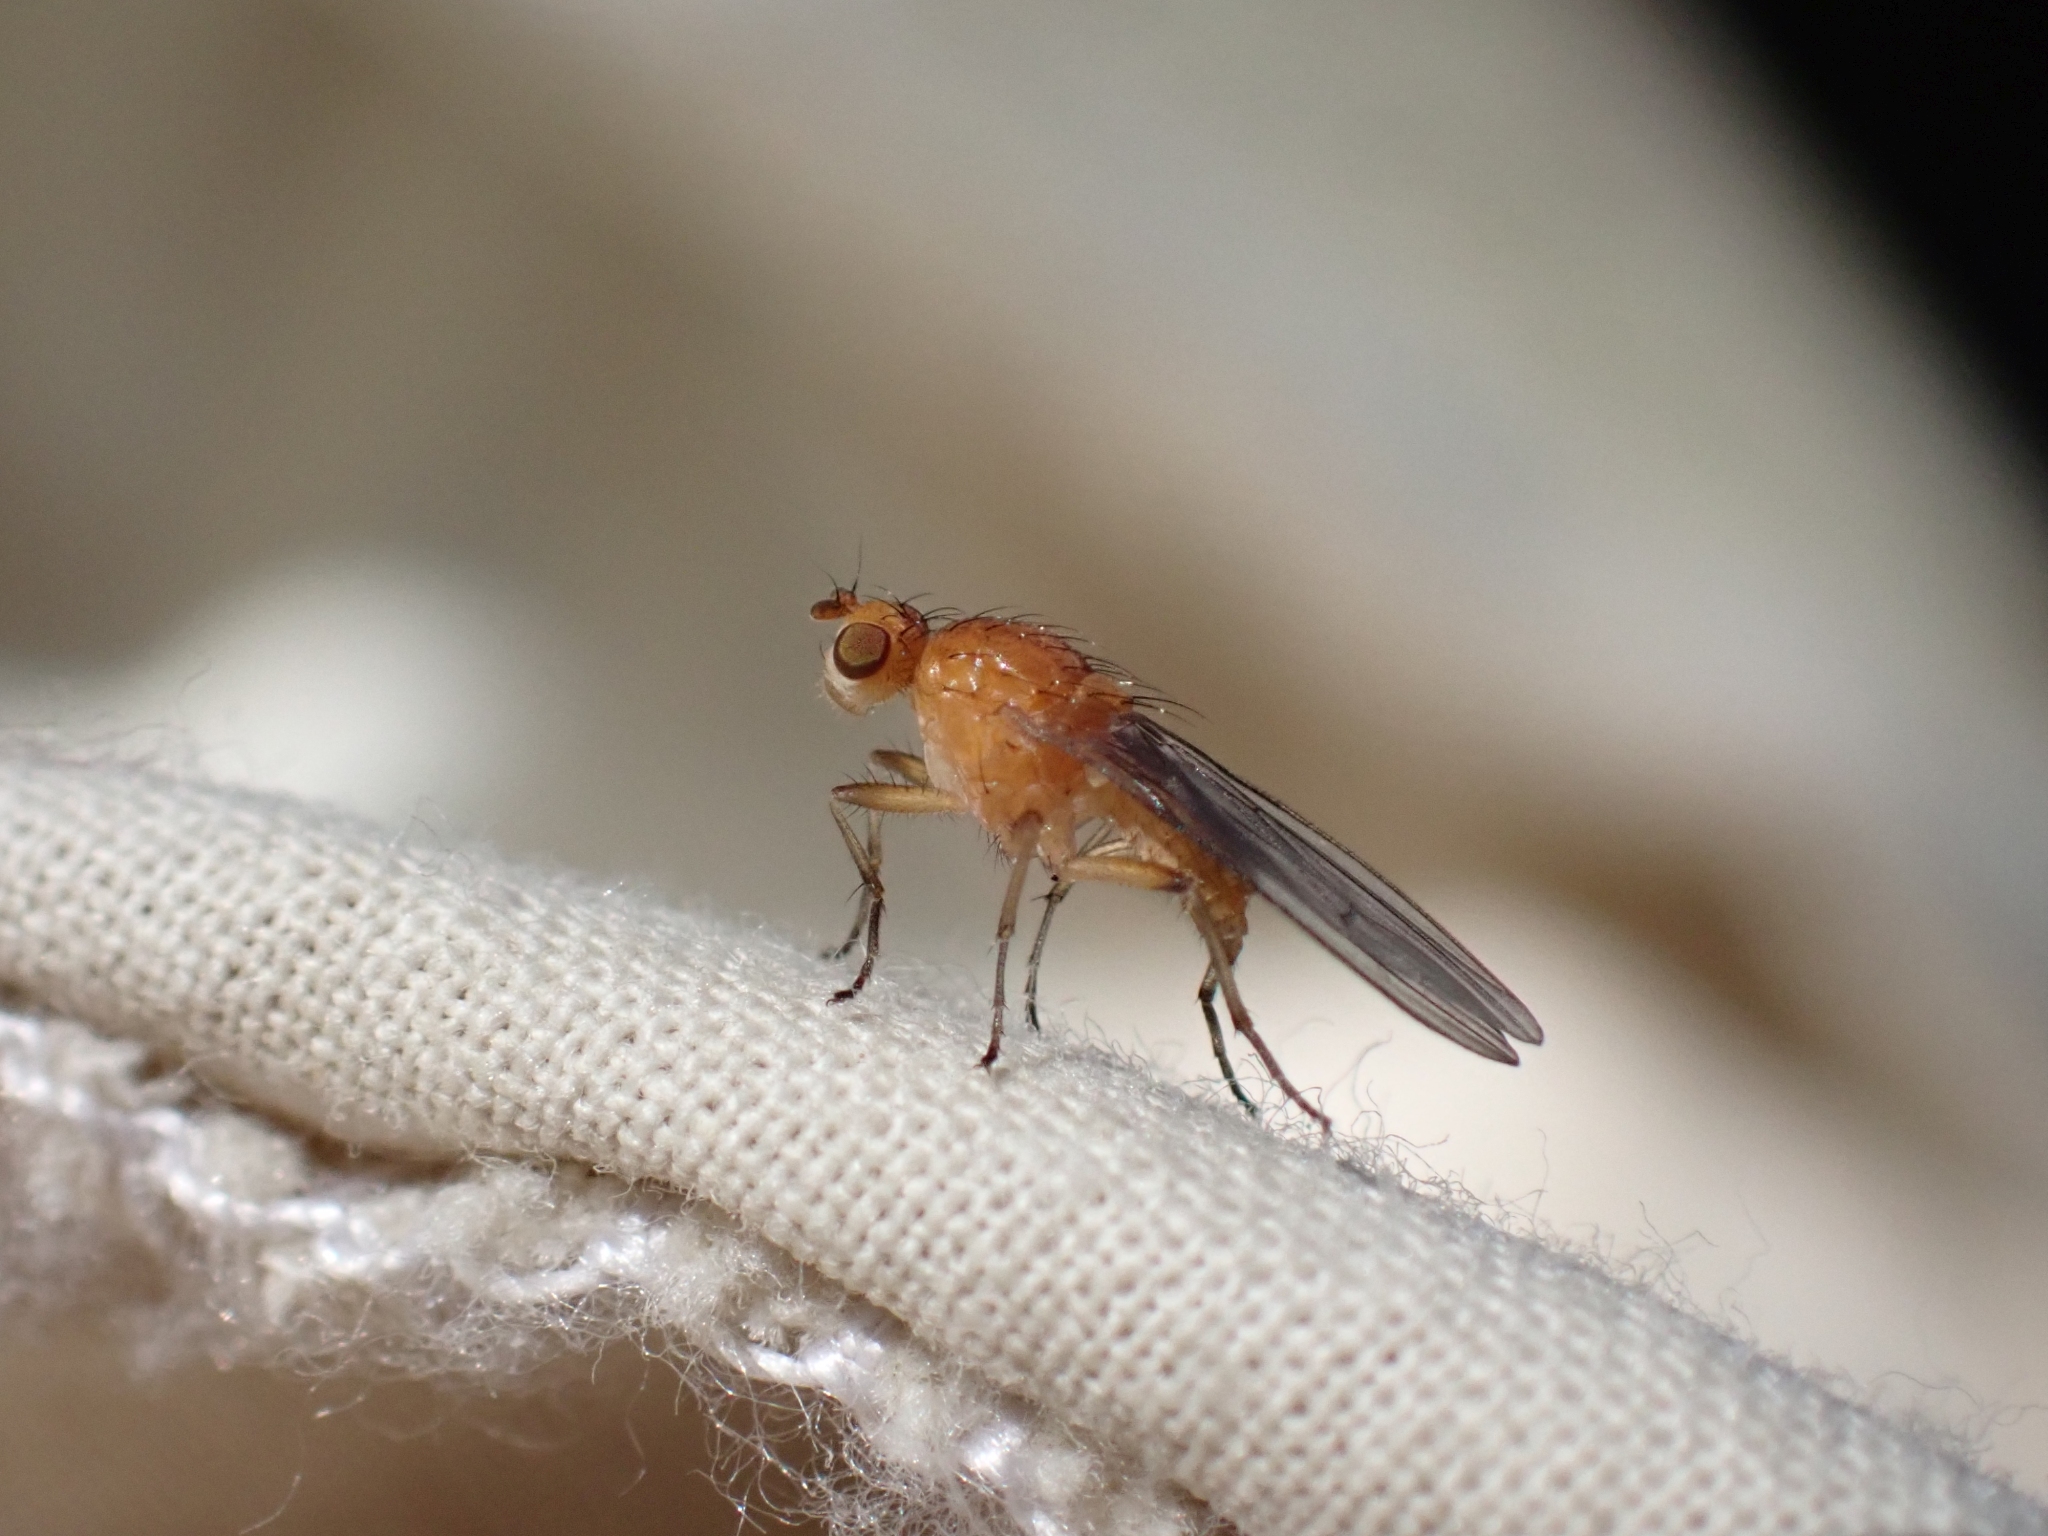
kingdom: Animalia
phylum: Arthropoda
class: Insecta
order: Diptera
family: Heleomyzidae
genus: Suillia
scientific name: Suillia convergens
